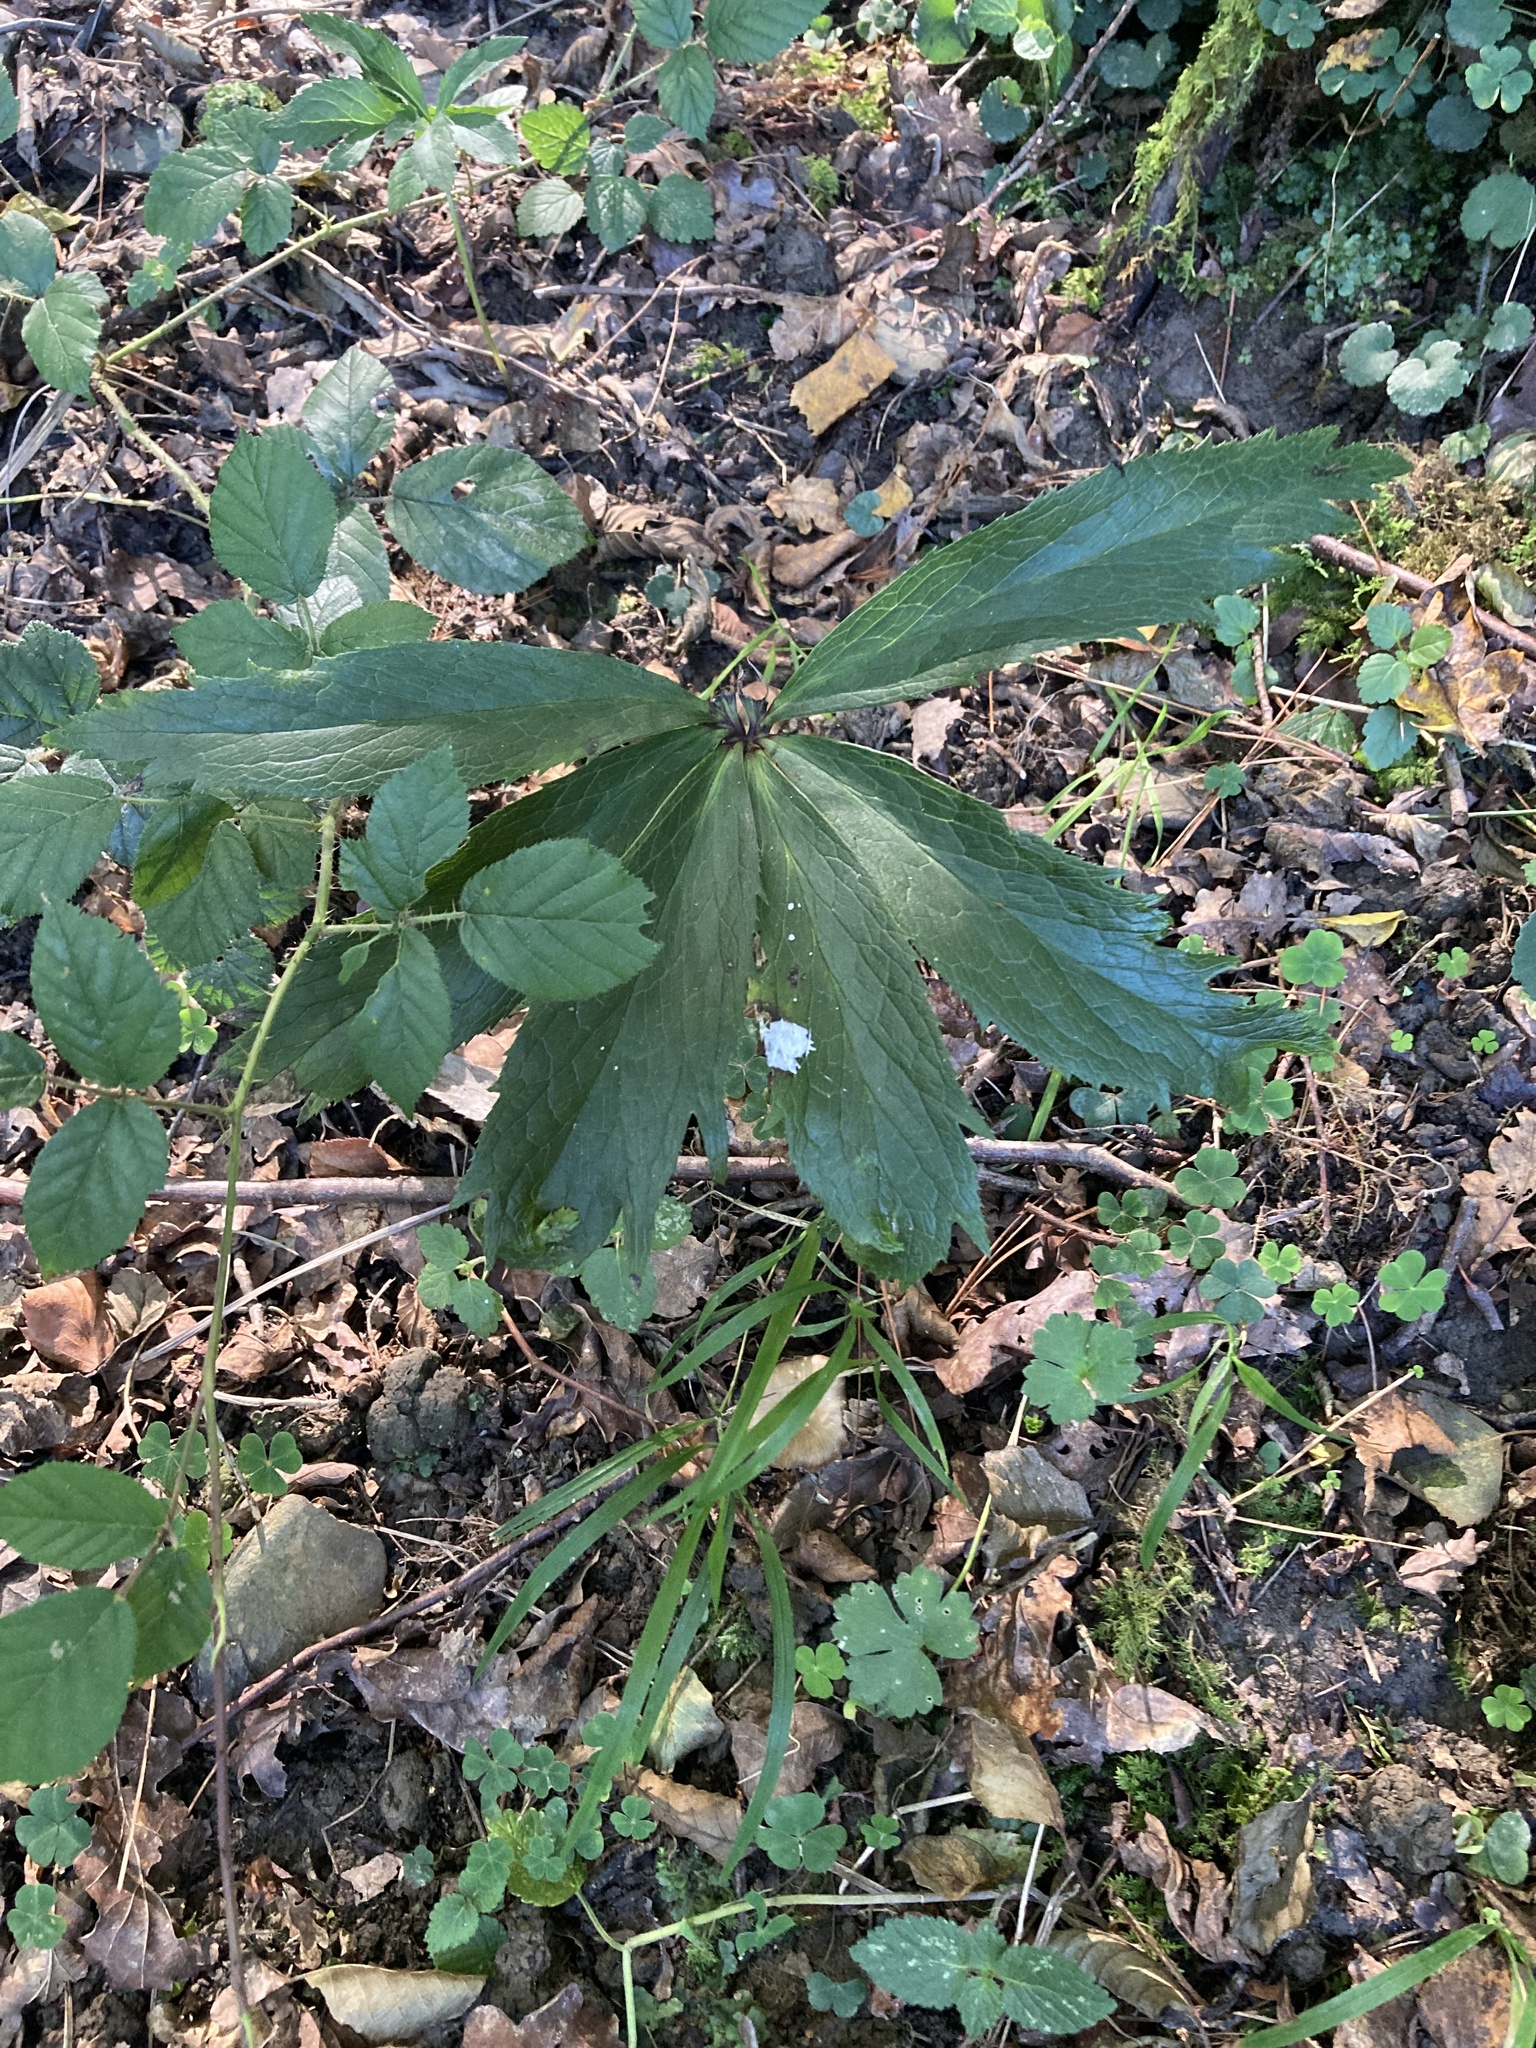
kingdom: Plantae
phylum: Tracheophyta
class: Magnoliopsida
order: Ranunculales
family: Ranunculaceae
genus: Helleborus
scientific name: Helleborus viridis
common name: Green hellebore
